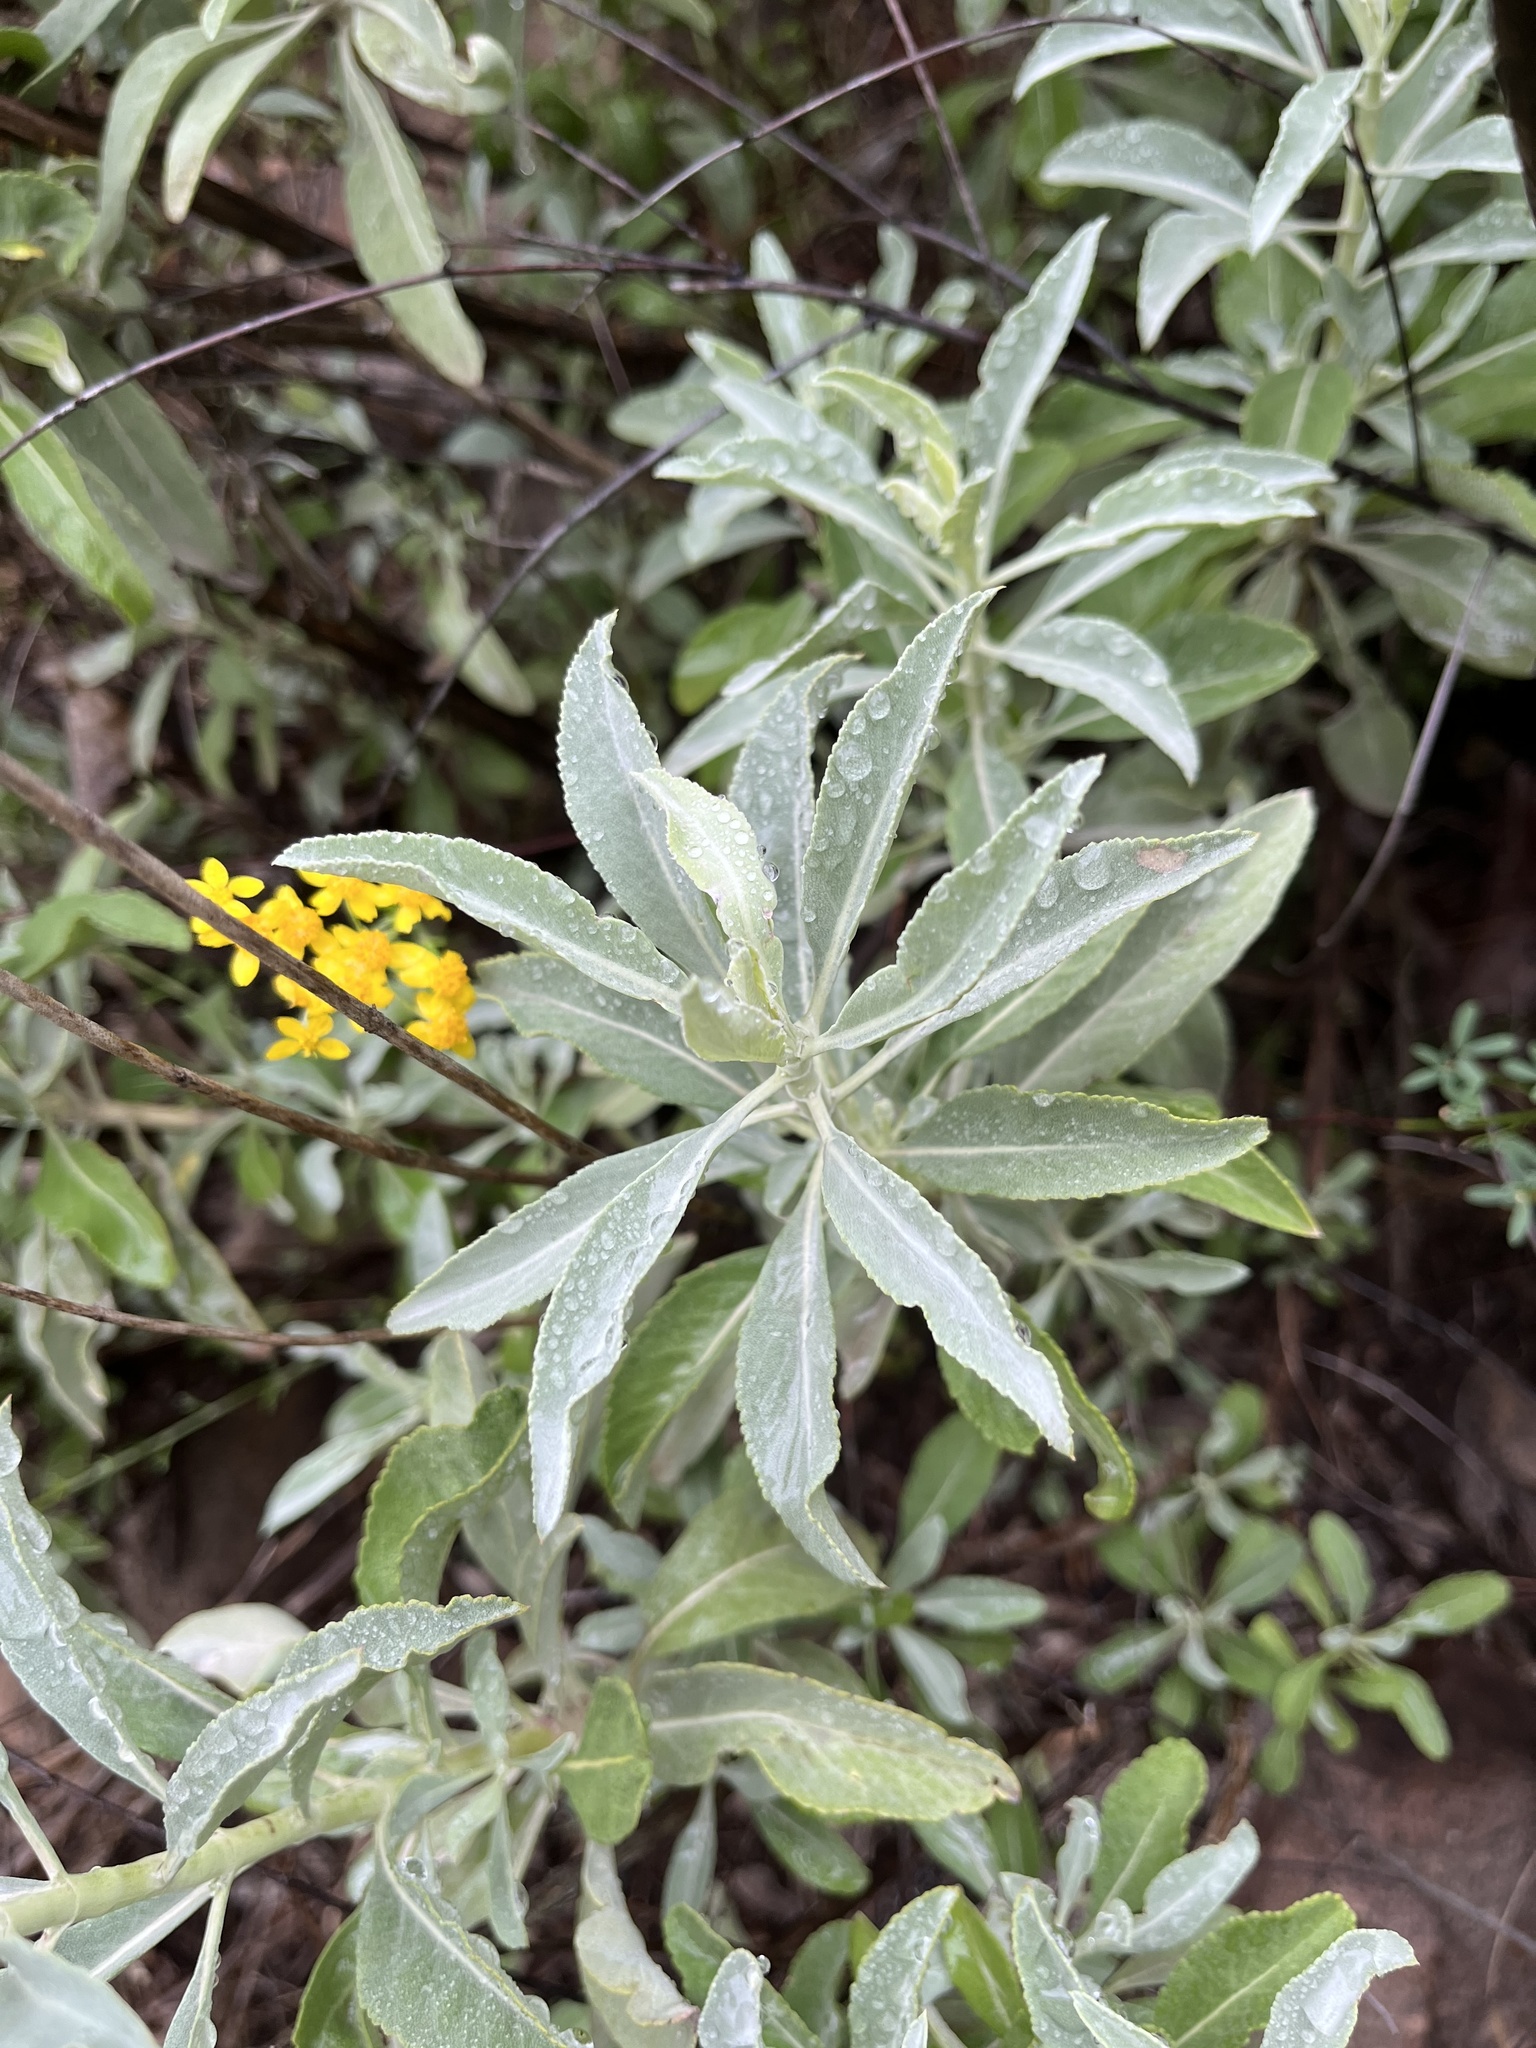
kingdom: Plantae
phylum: Tracheophyta
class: Magnoliopsida
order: Lamiales
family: Lamiaceae
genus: Salvia
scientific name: Salvia apiana
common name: White sage
